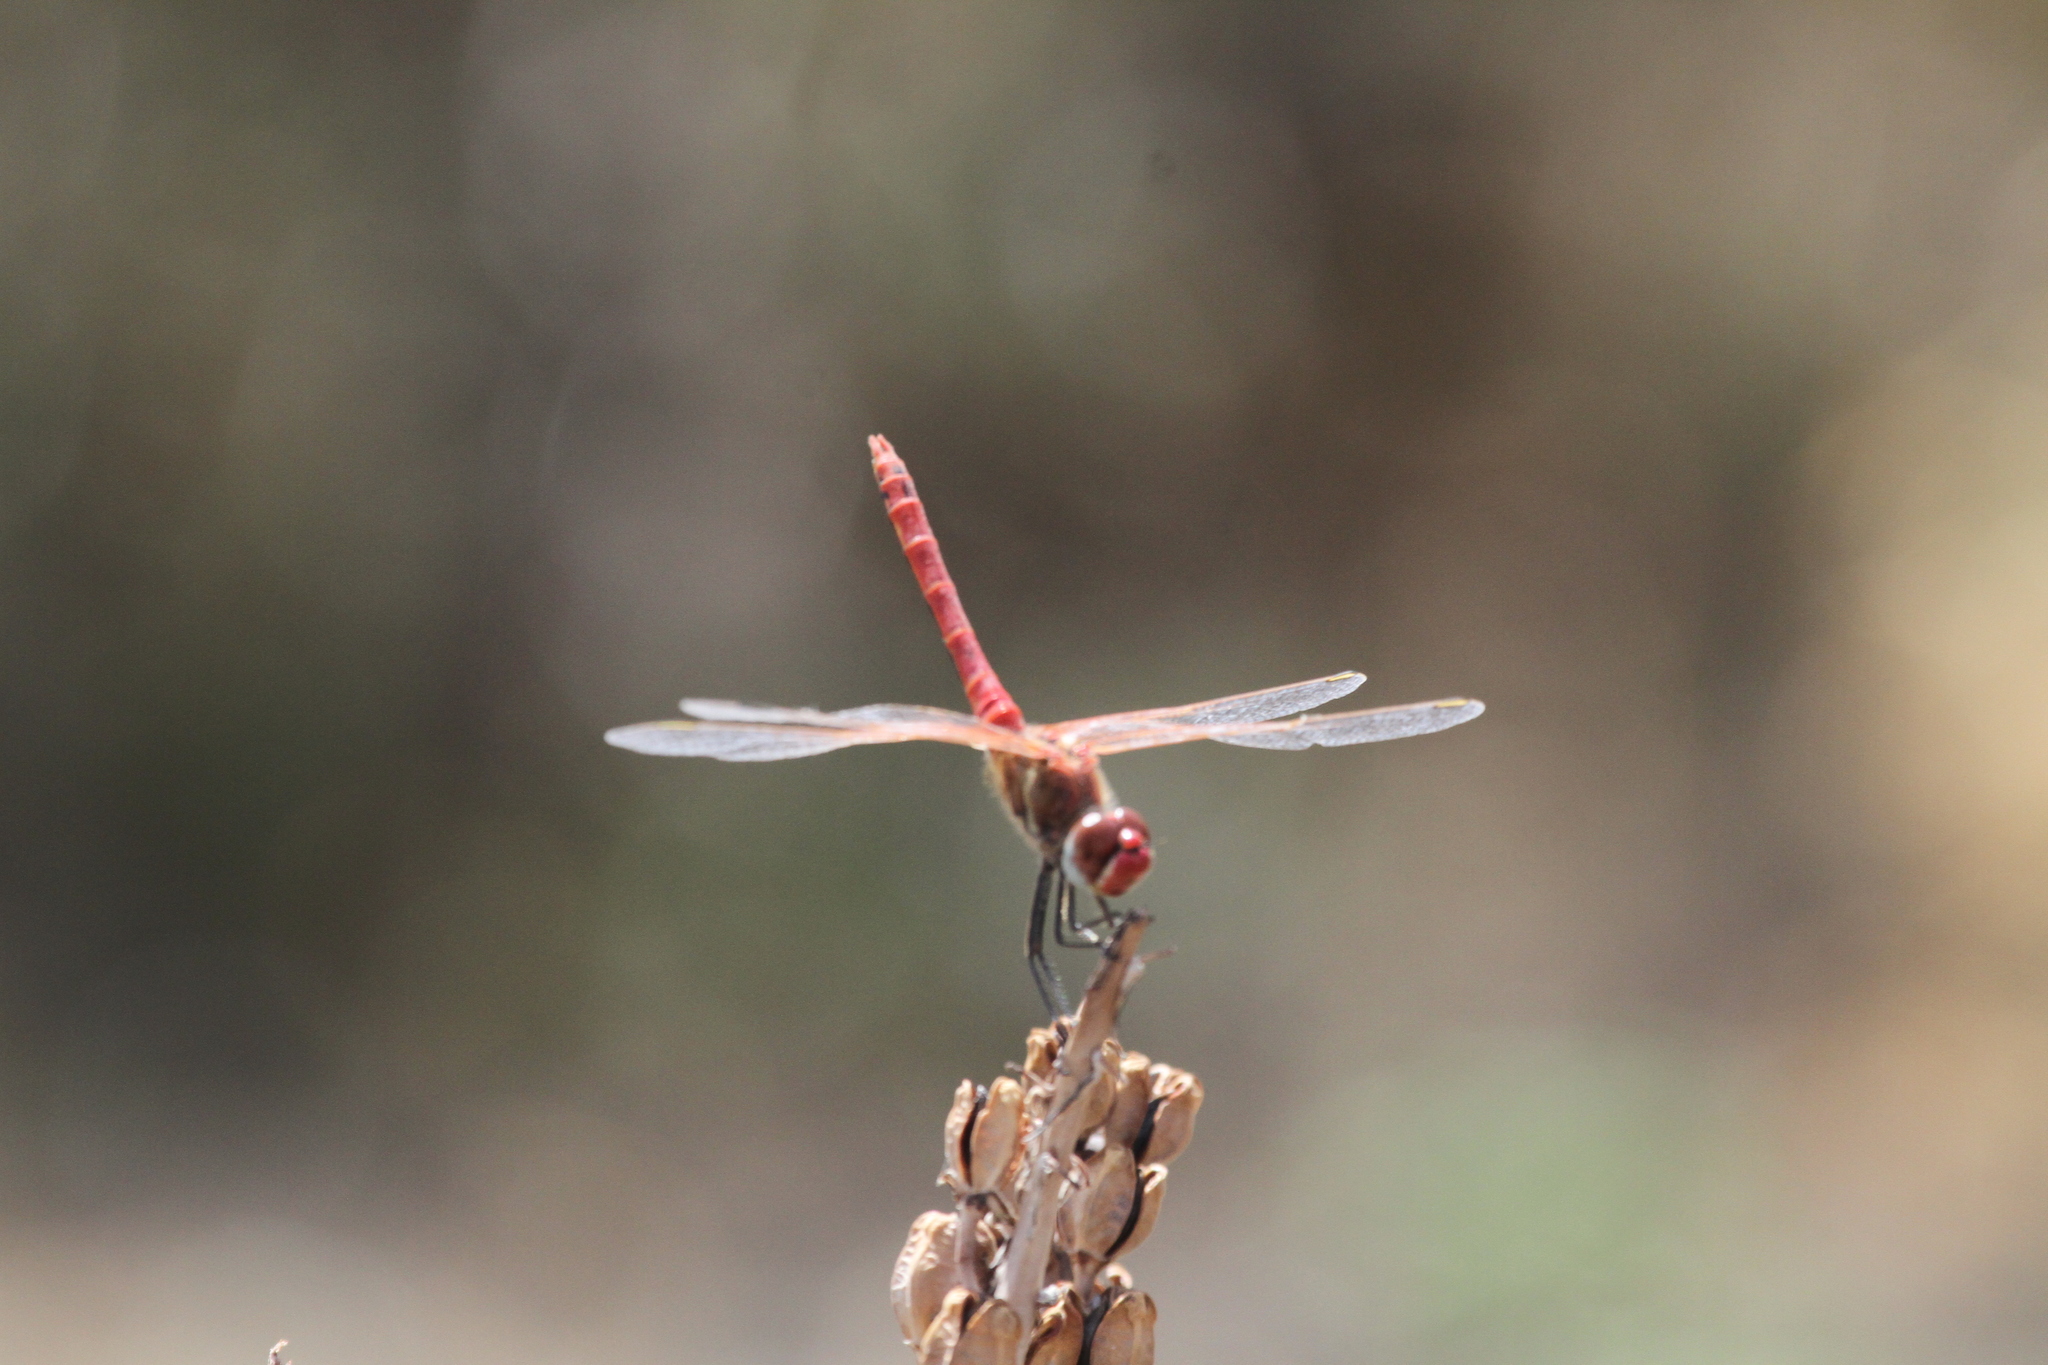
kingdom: Animalia
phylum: Arthropoda
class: Insecta
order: Odonata
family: Libellulidae
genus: Sympetrum
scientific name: Sympetrum fonscolombii
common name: Red-veined darter
